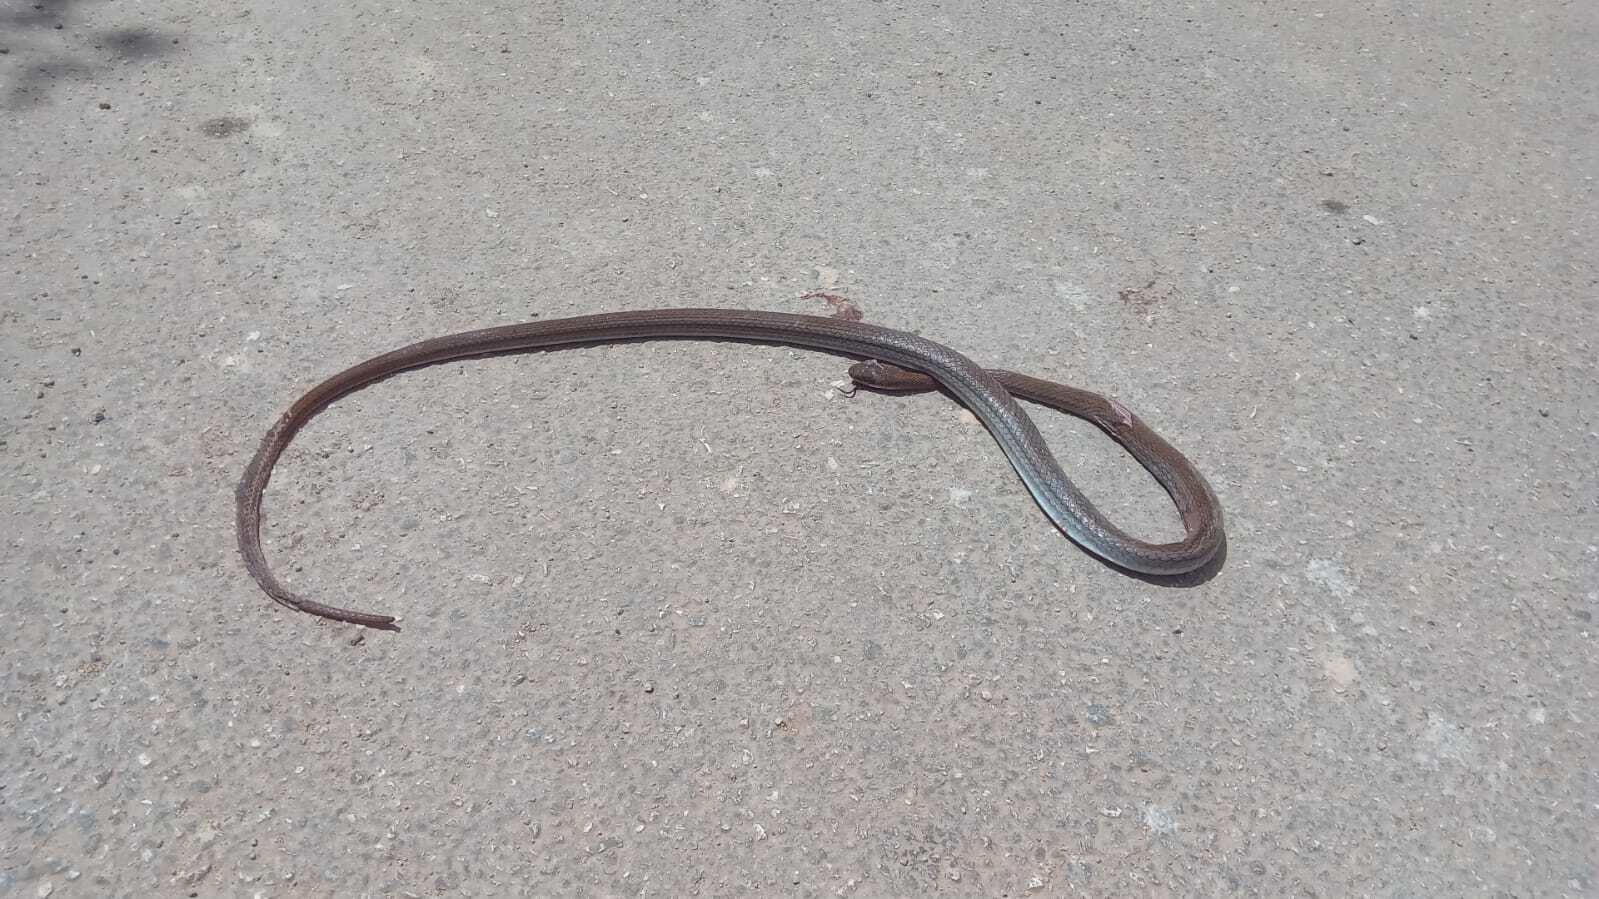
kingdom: Animalia
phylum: Chordata
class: Squamata
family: Colubridae
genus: Mastigodryas
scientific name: Mastigodryas melanolomus
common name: Salmon-bellied racer
